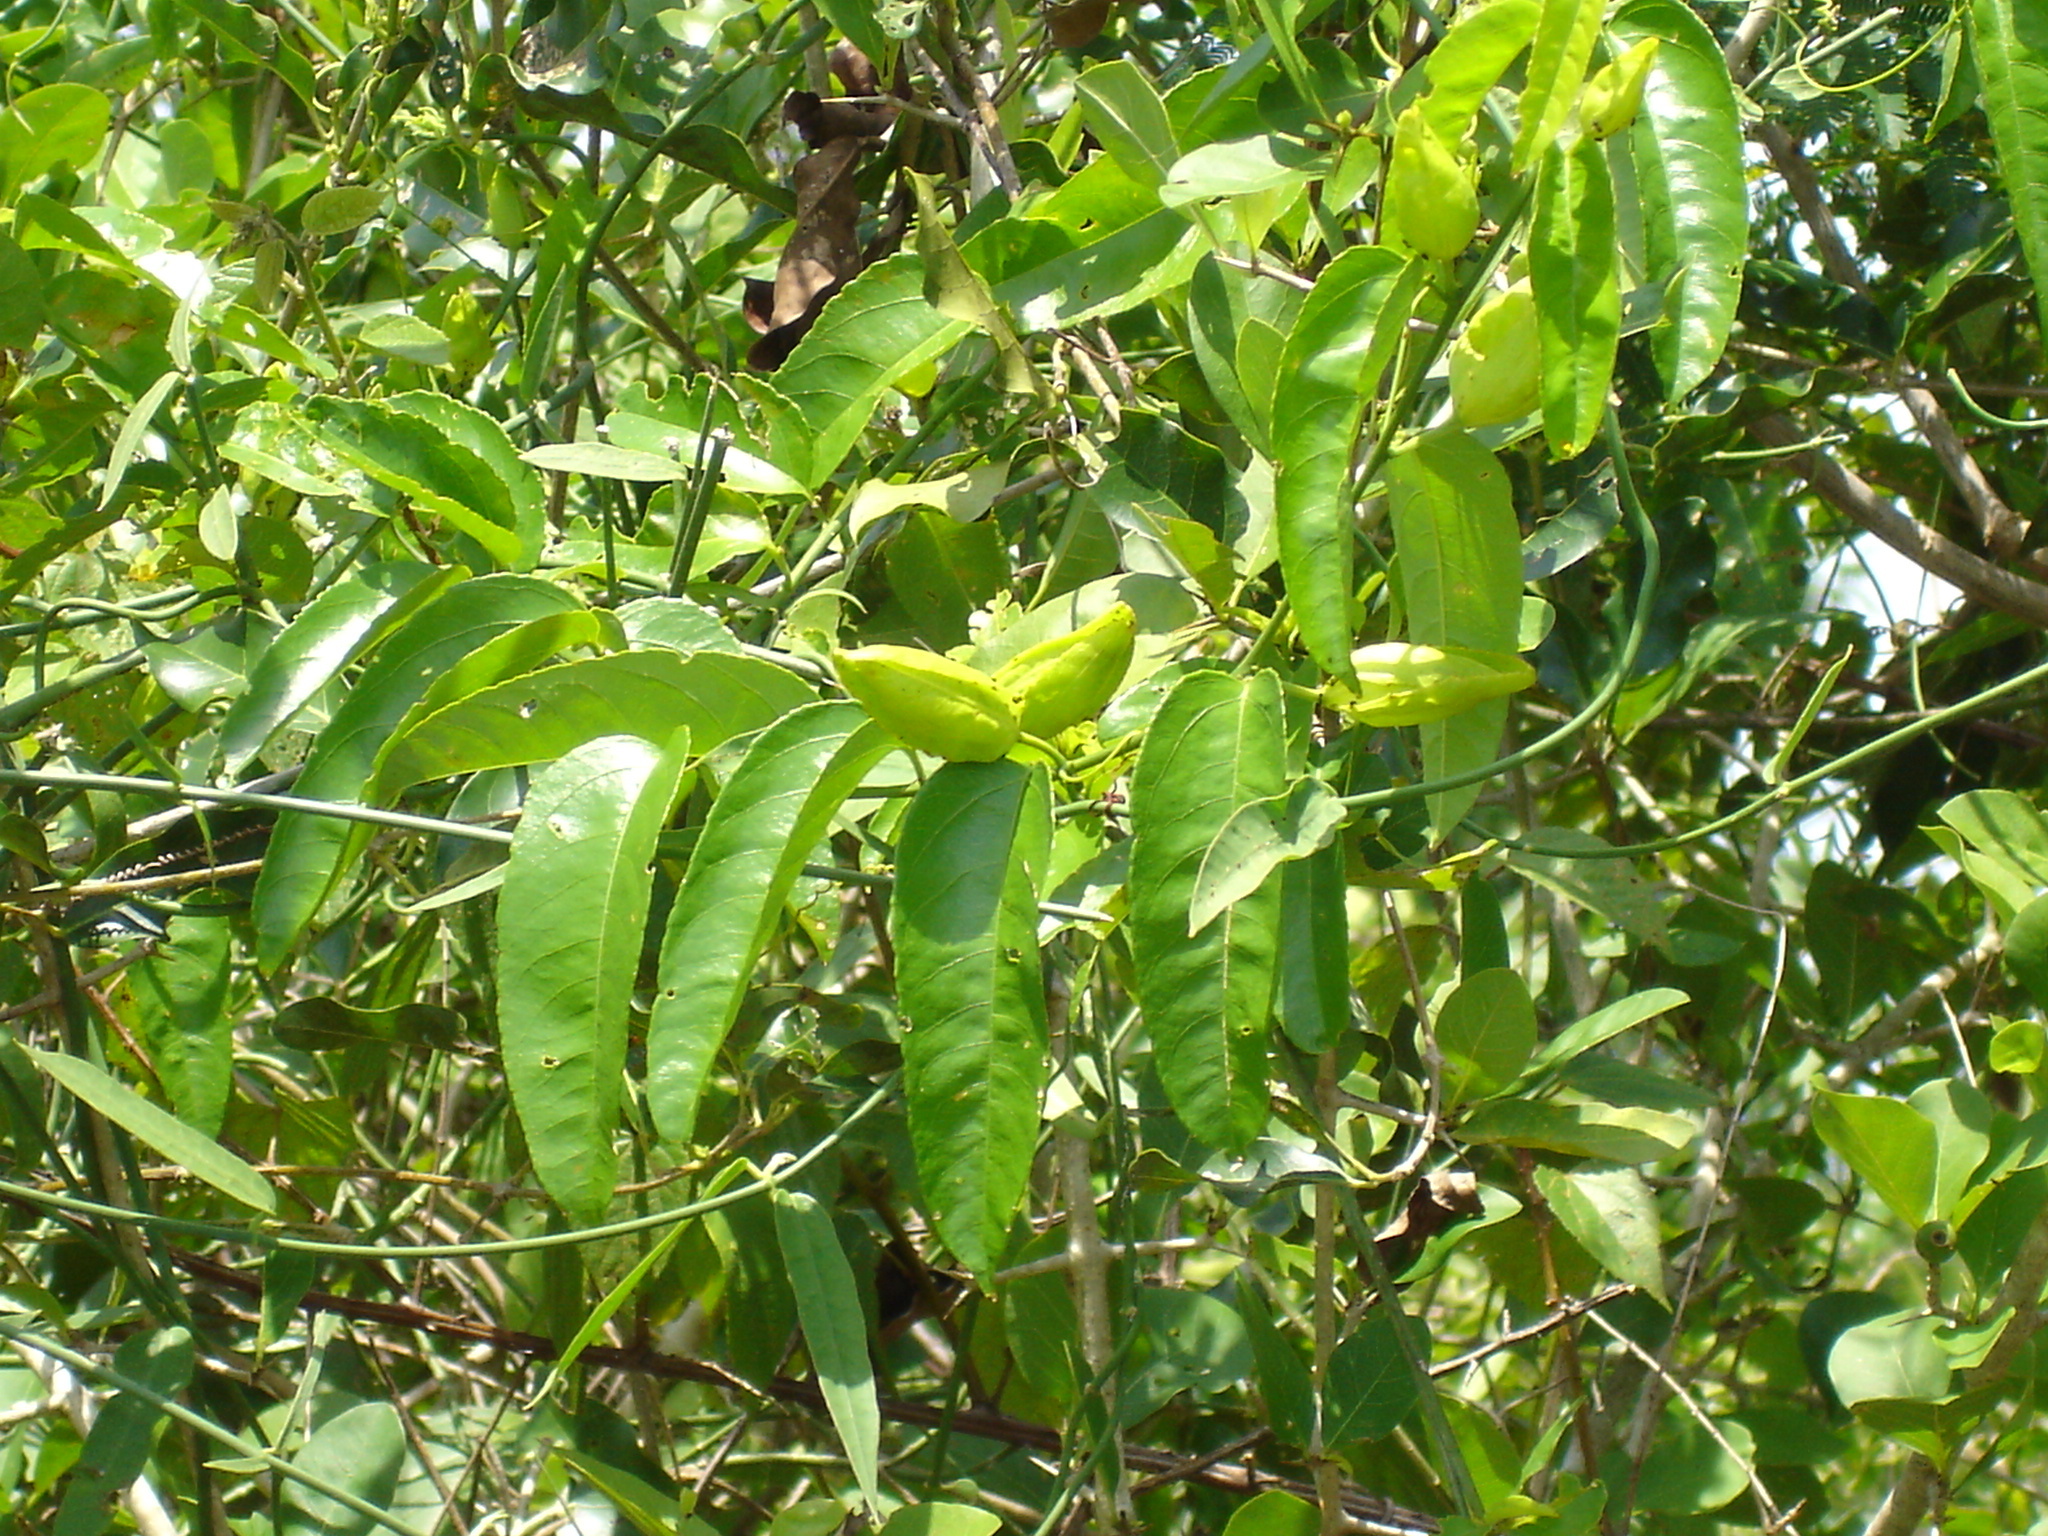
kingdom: Plantae
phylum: Tracheophyta
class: Magnoliopsida
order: Malpighiales
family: Passifloraceae
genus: Passiflora
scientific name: Passiflora guazumifolia
